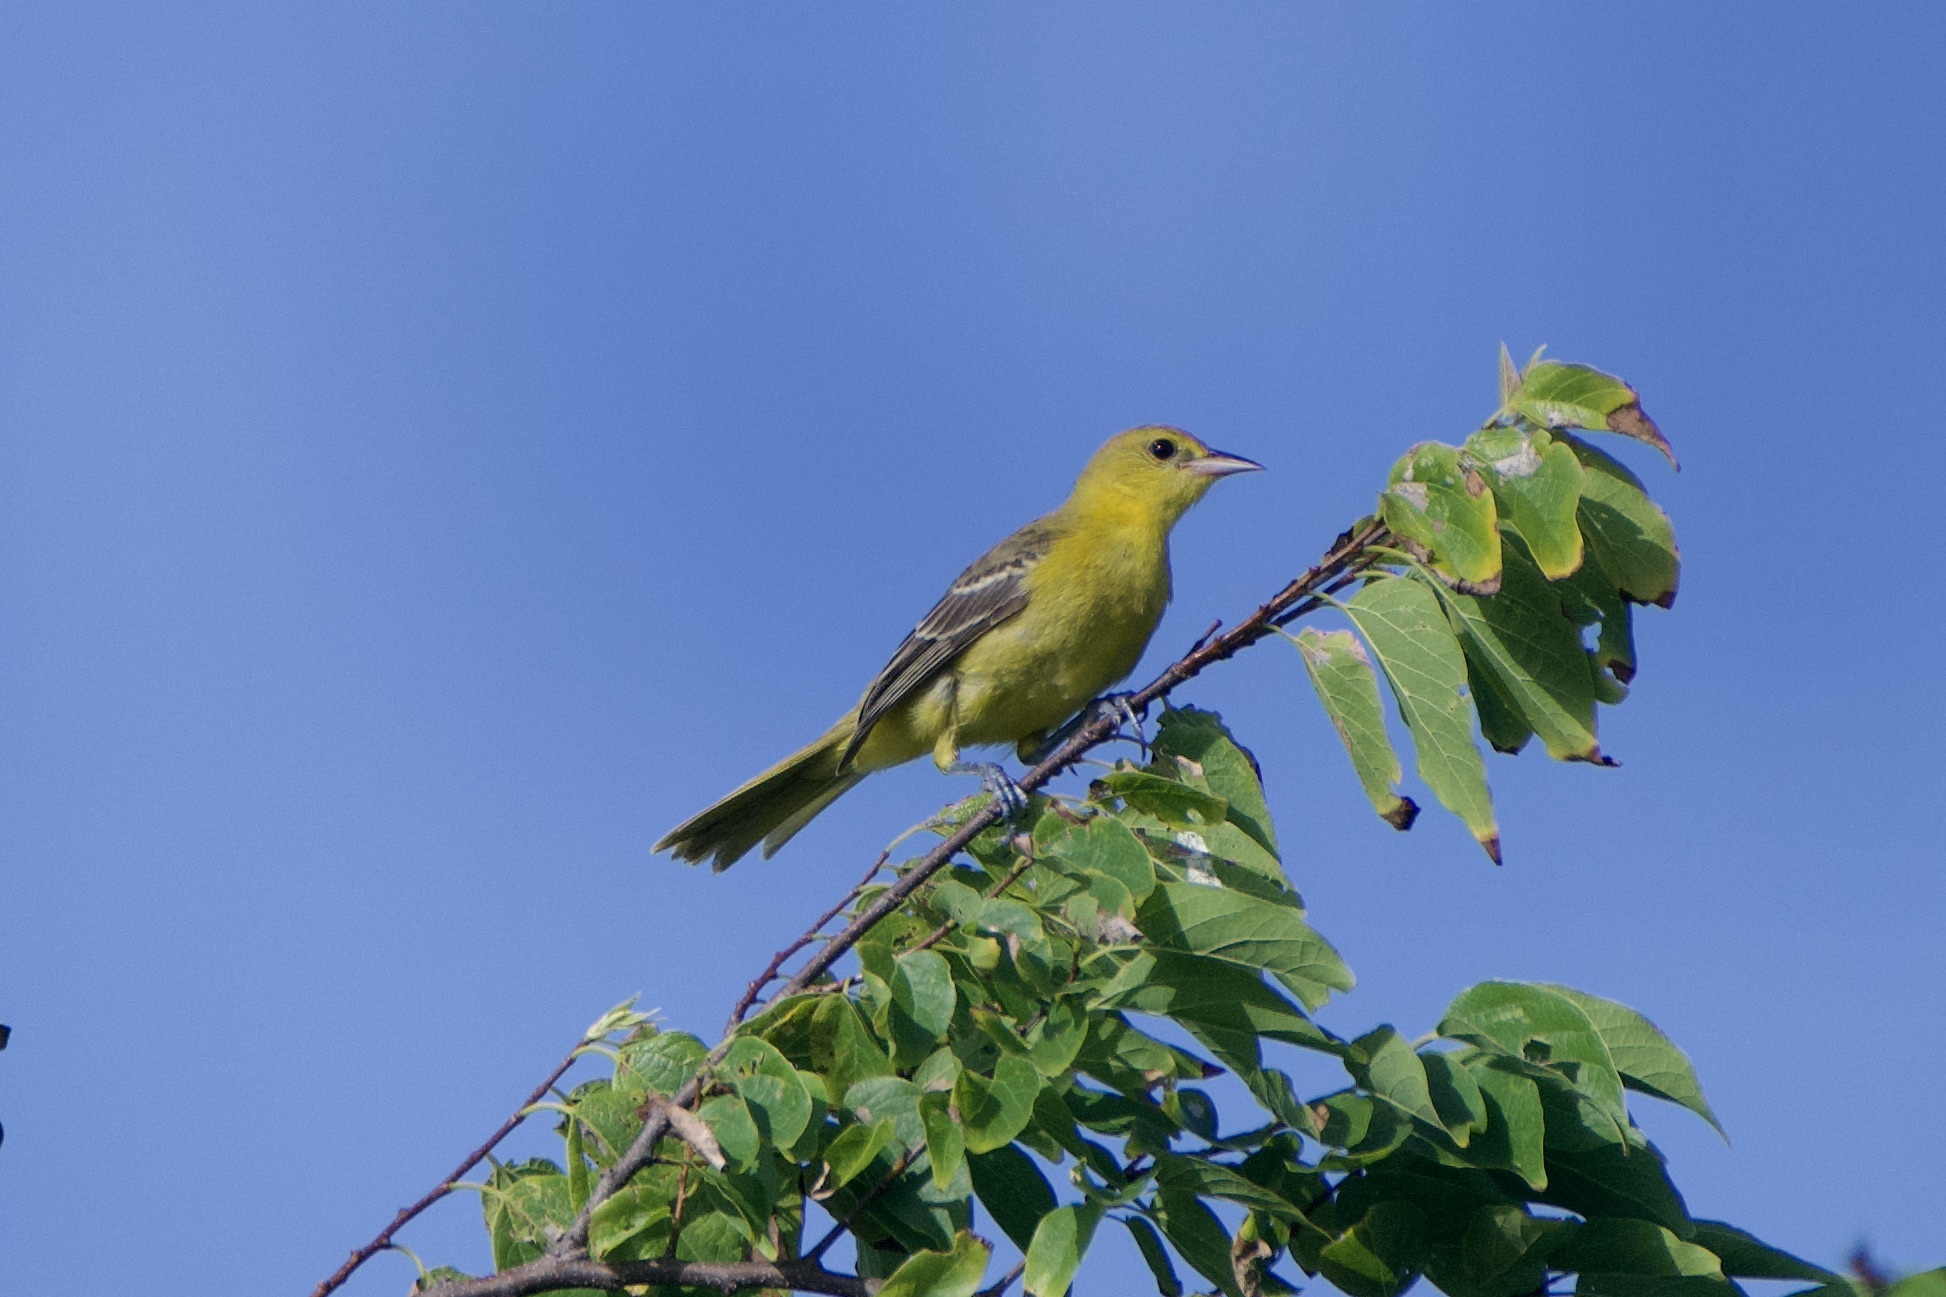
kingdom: Animalia
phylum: Chordata
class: Aves
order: Passeriformes
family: Icteridae
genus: Icterus
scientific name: Icterus spurius
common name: Orchard oriole
